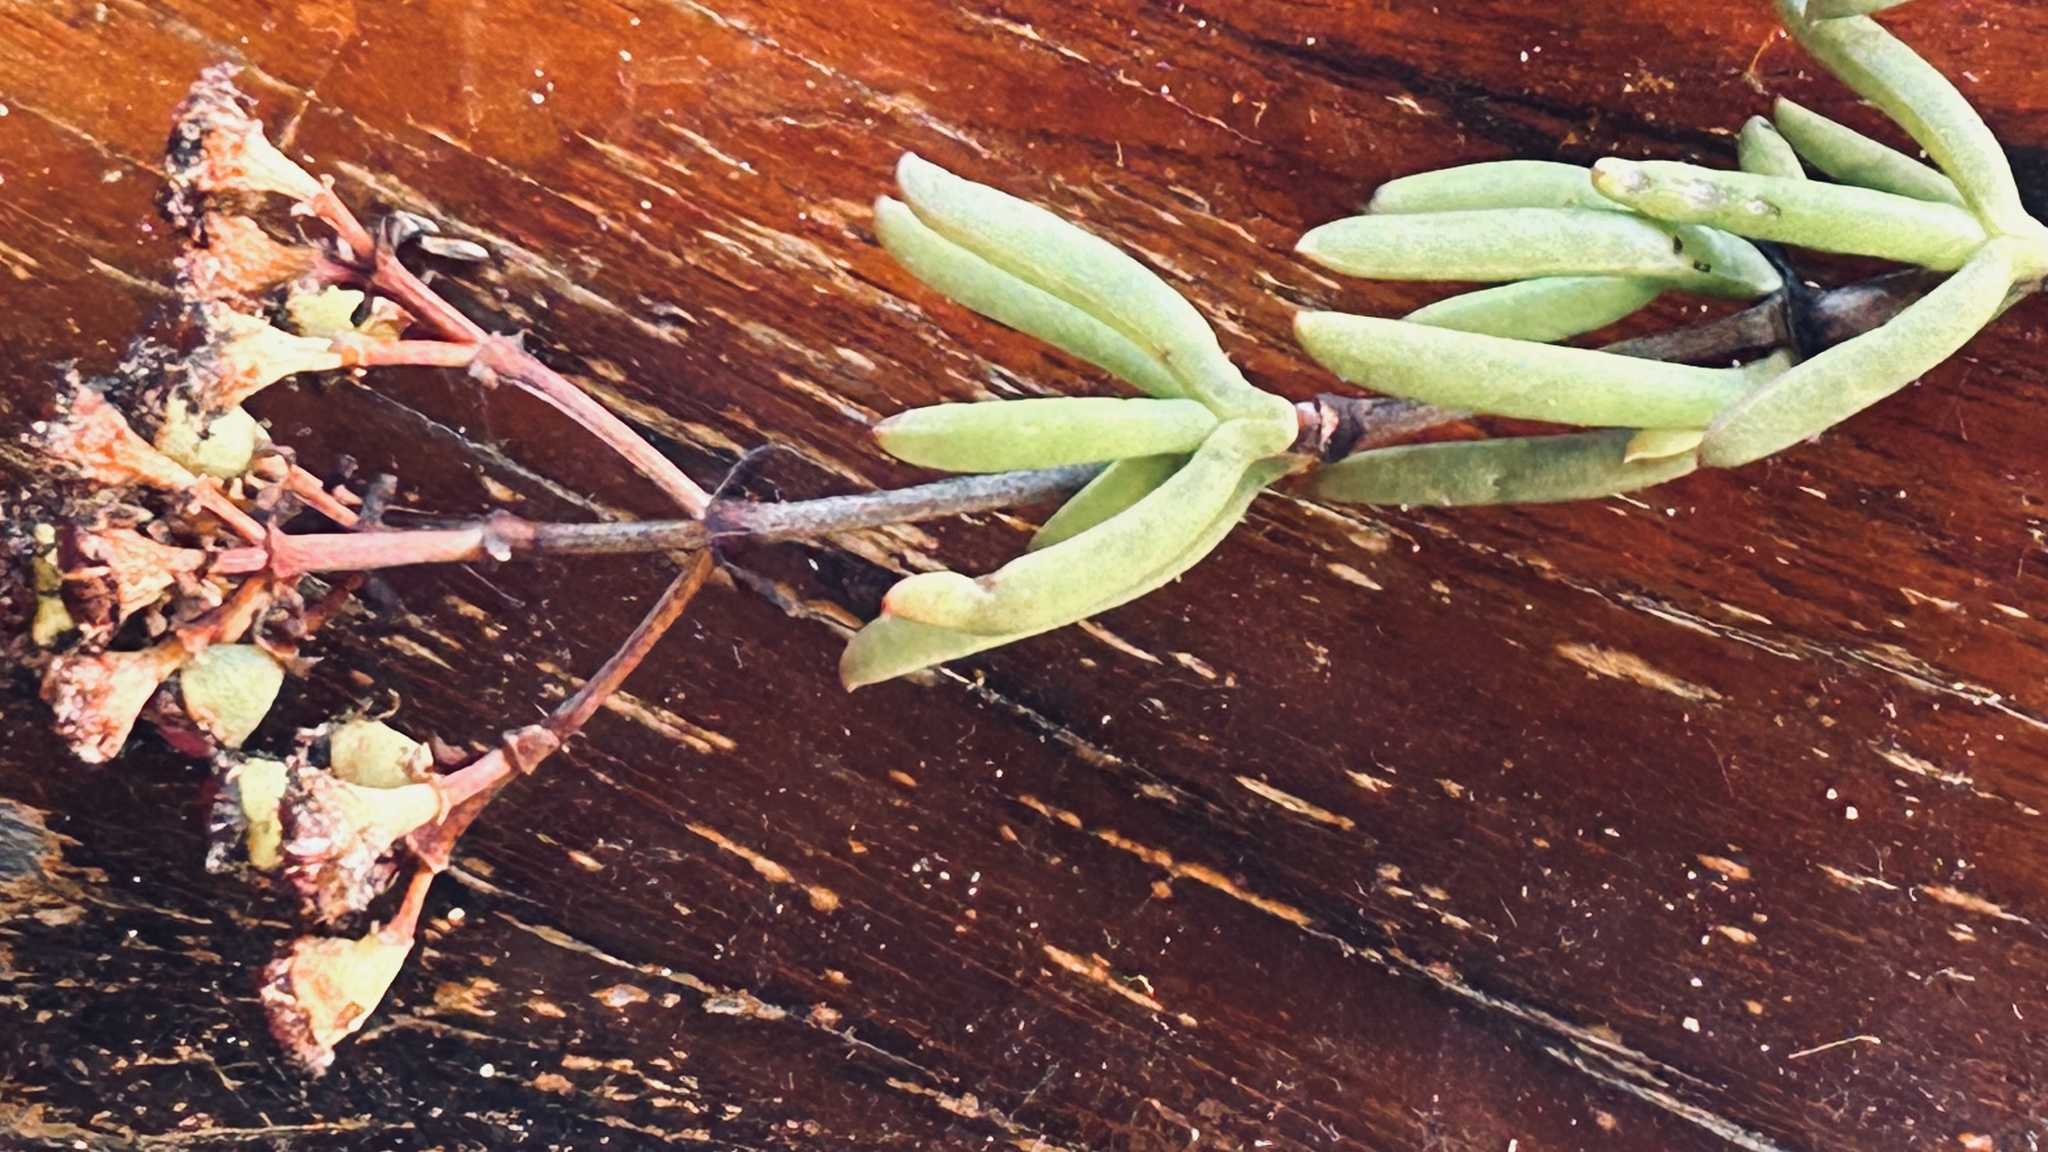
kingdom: Plantae
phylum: Tracheophyta
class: Magnoliopsida
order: Caryophyllales
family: Aizoaceae
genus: Ruschia
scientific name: Ruschia tumidula
